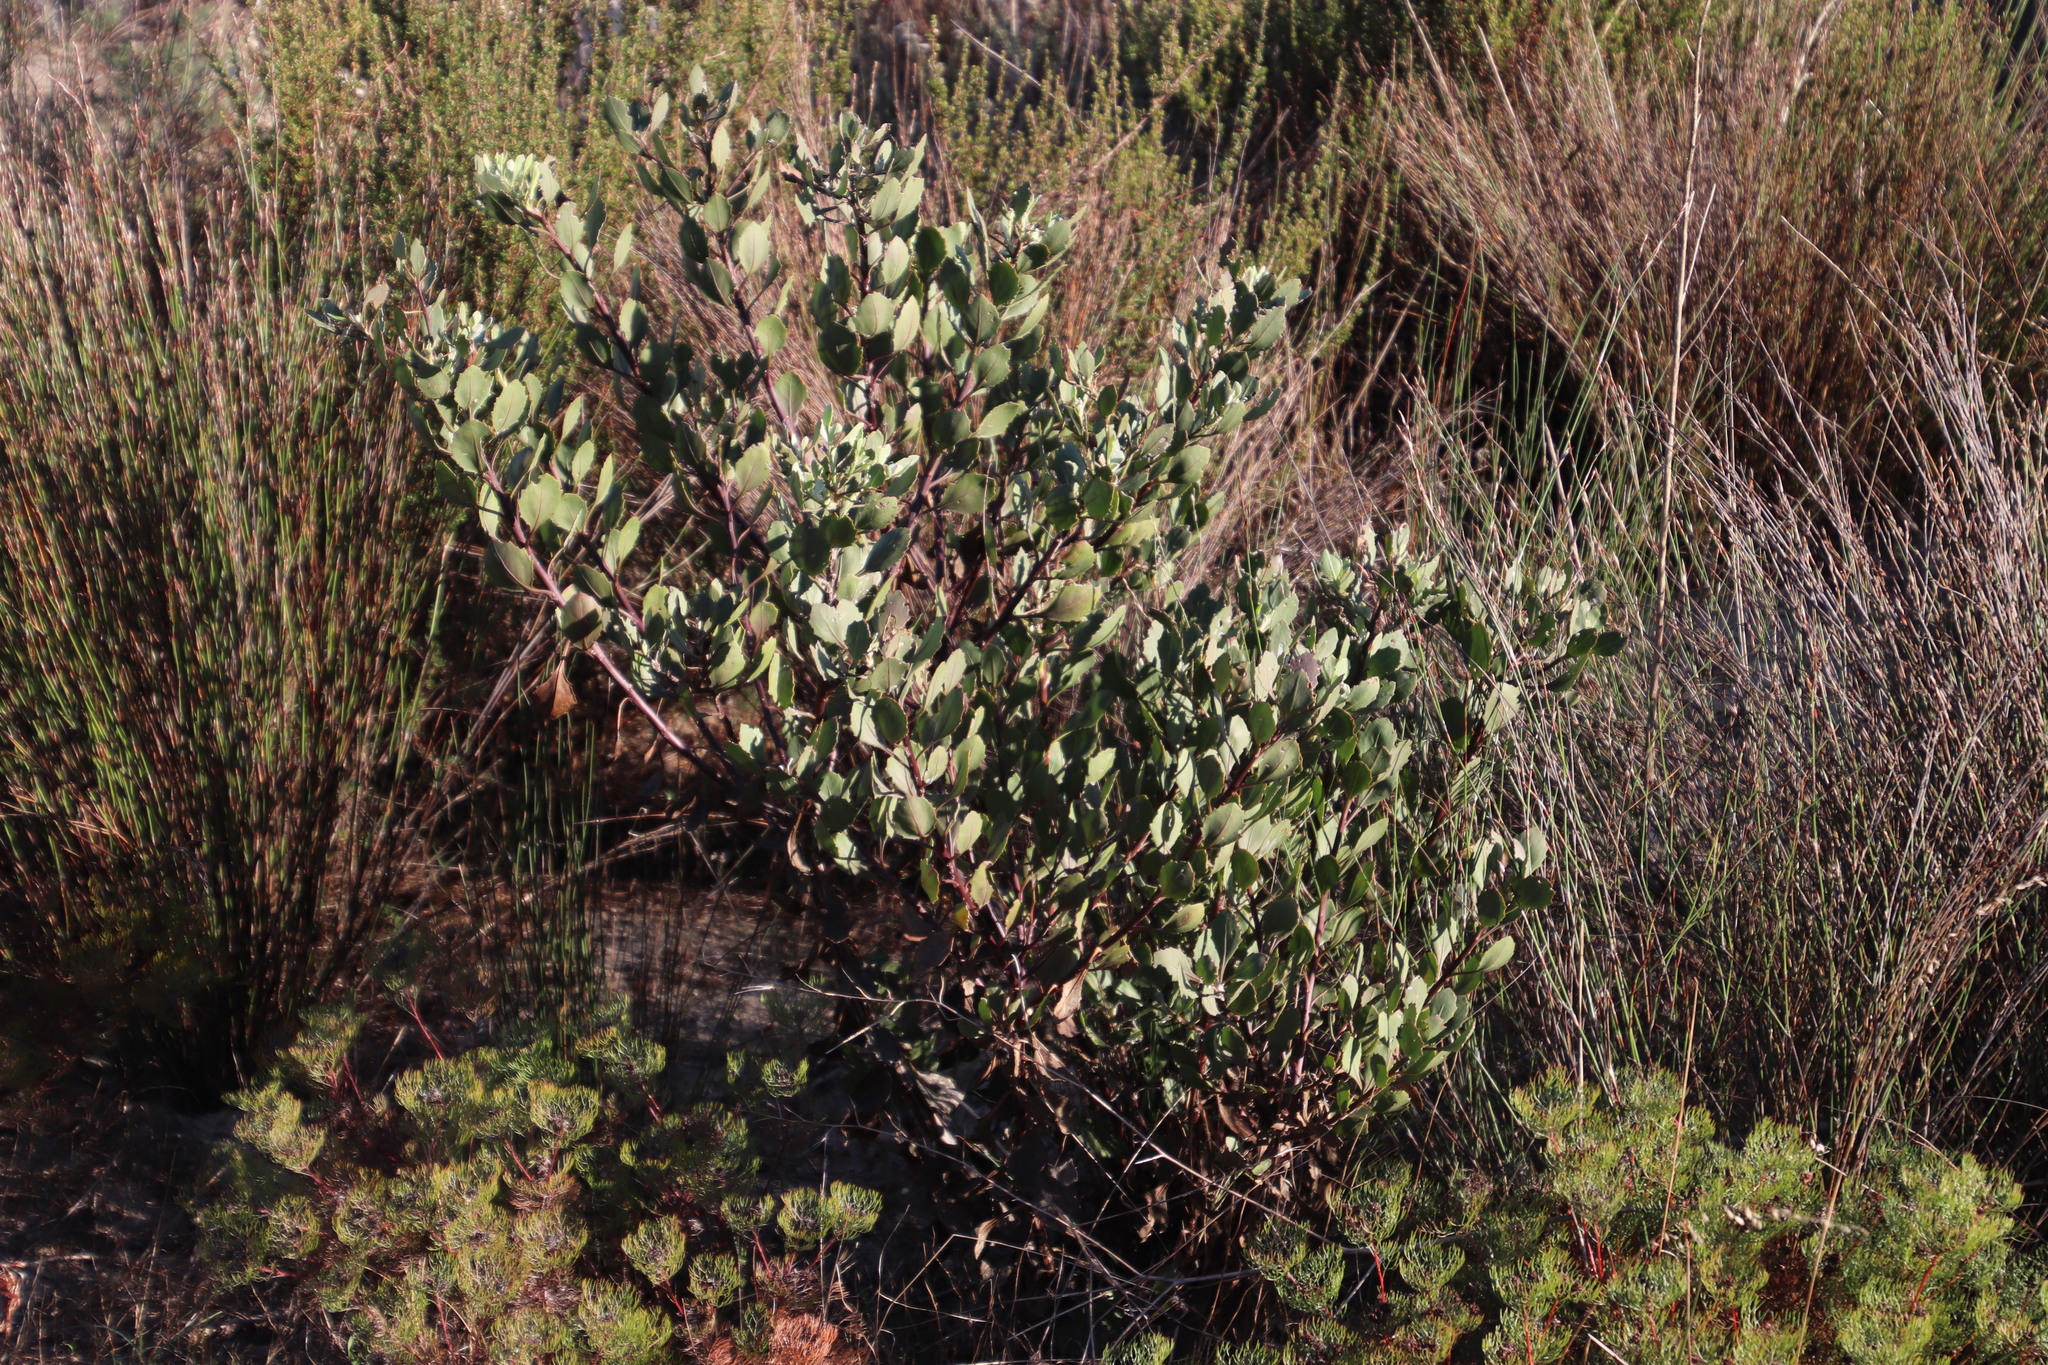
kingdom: Plantae
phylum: Tracheophyta
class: Magnoliopsida
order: Asterales
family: Asteraceae
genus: Osteospermum
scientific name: Osteospermum moniliferum
